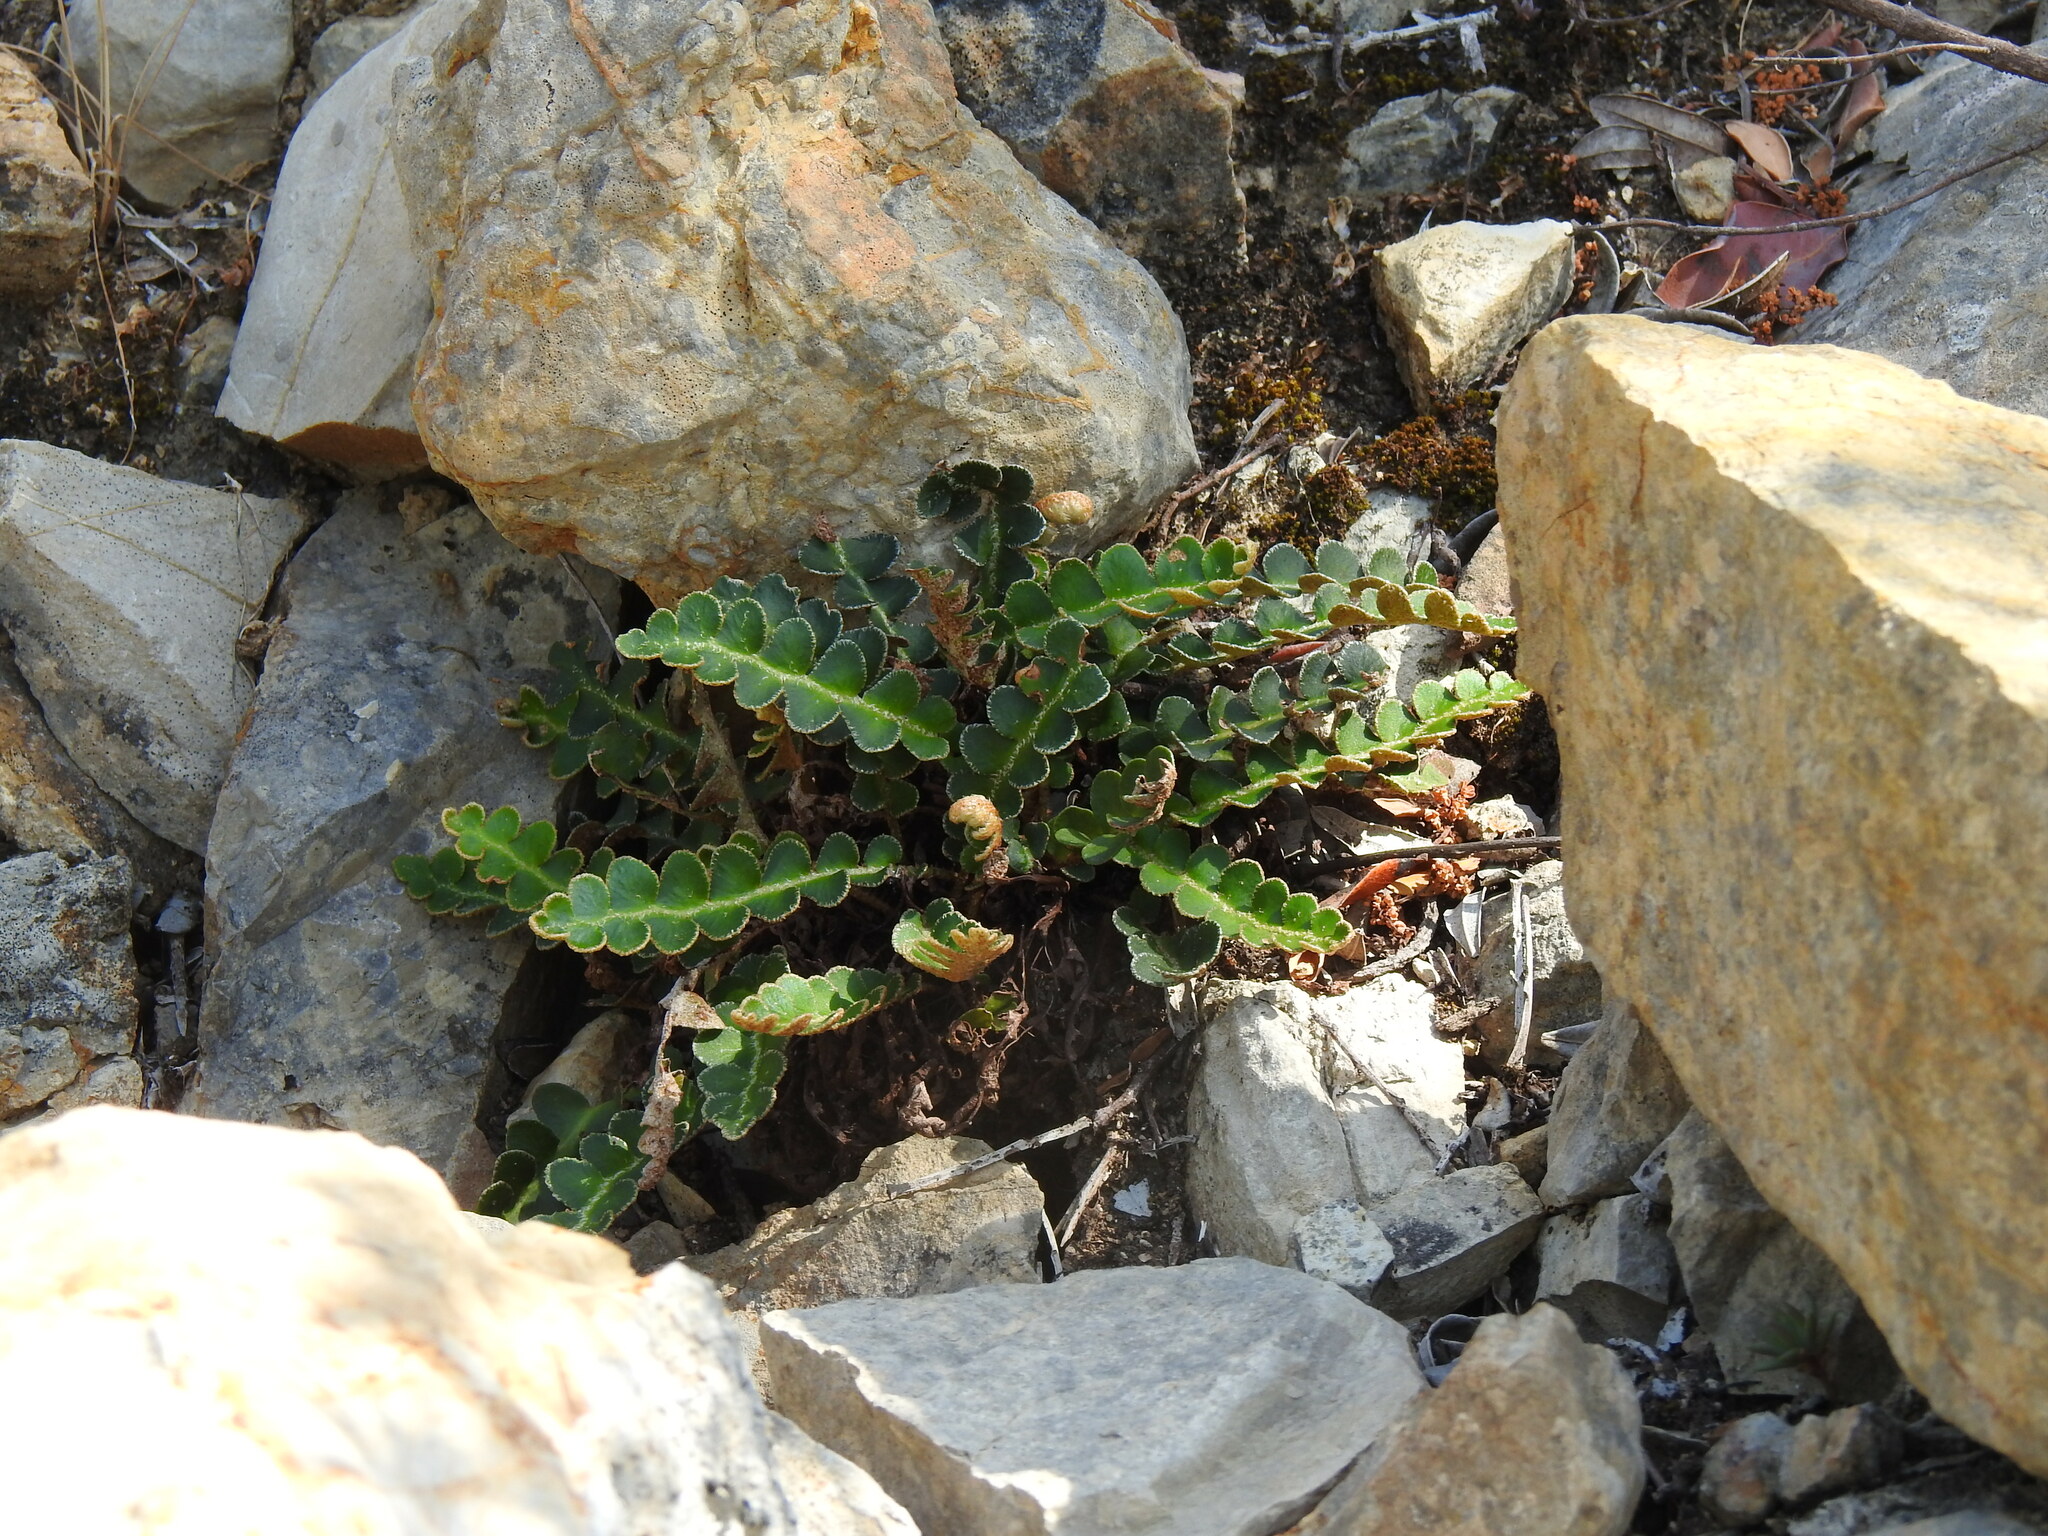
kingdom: Plantae
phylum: Tracheophyta
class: Polypodiopsida
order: Polypodiales
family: Aspleniaceae
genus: Asplenium
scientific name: Asplenium ceterach
